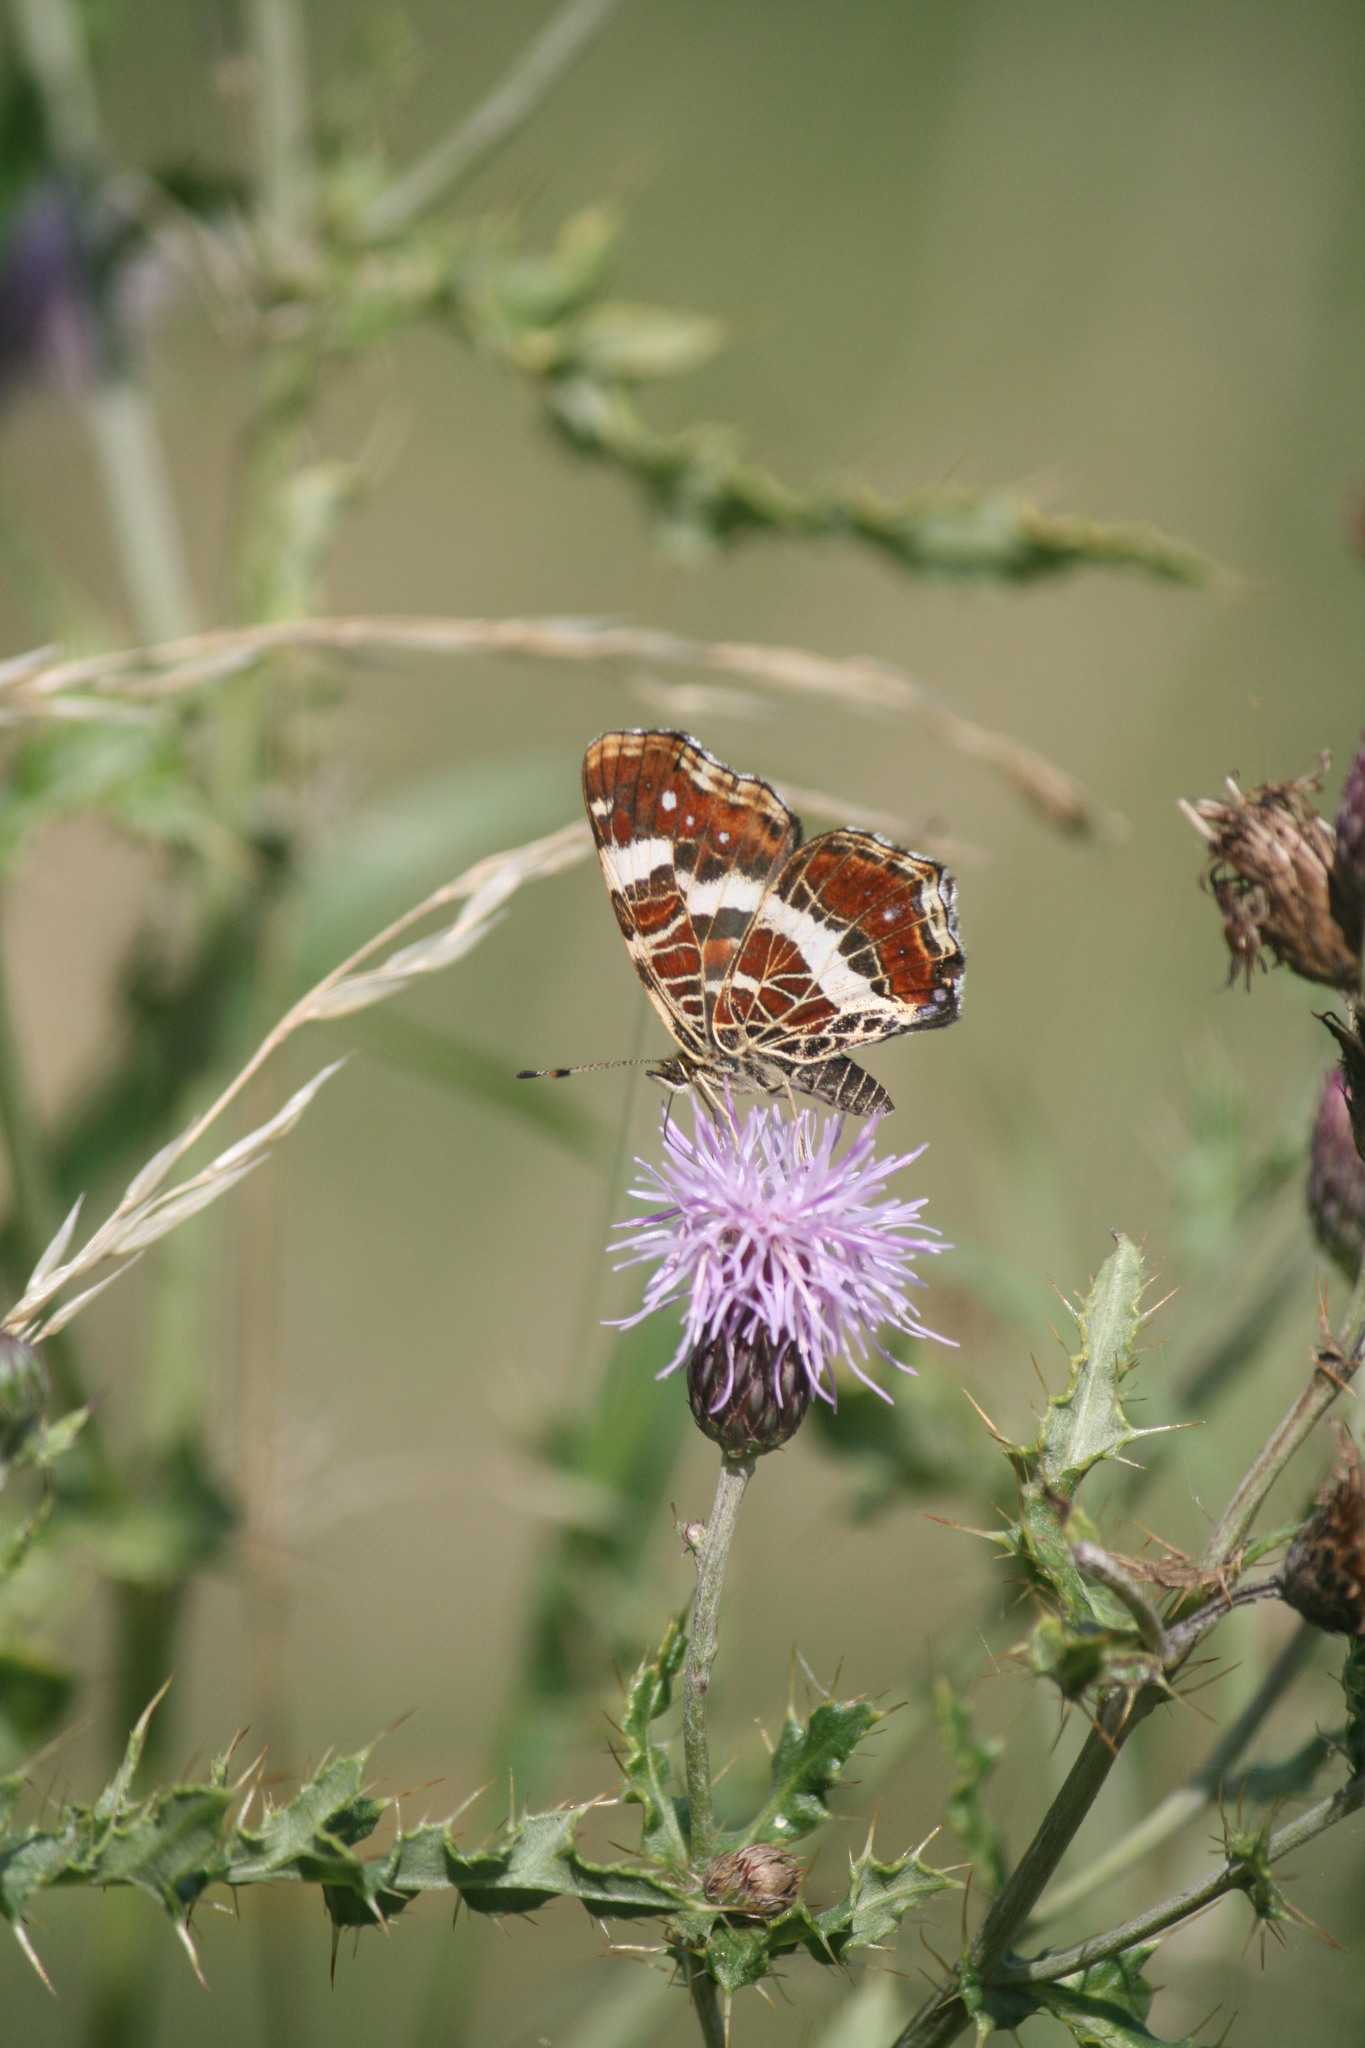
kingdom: Animalia
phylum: Arthropoda
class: Insecta
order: Lepidoptera
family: Nymphalidae
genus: Araschnia
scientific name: Araschnia levana
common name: Map butterfly
